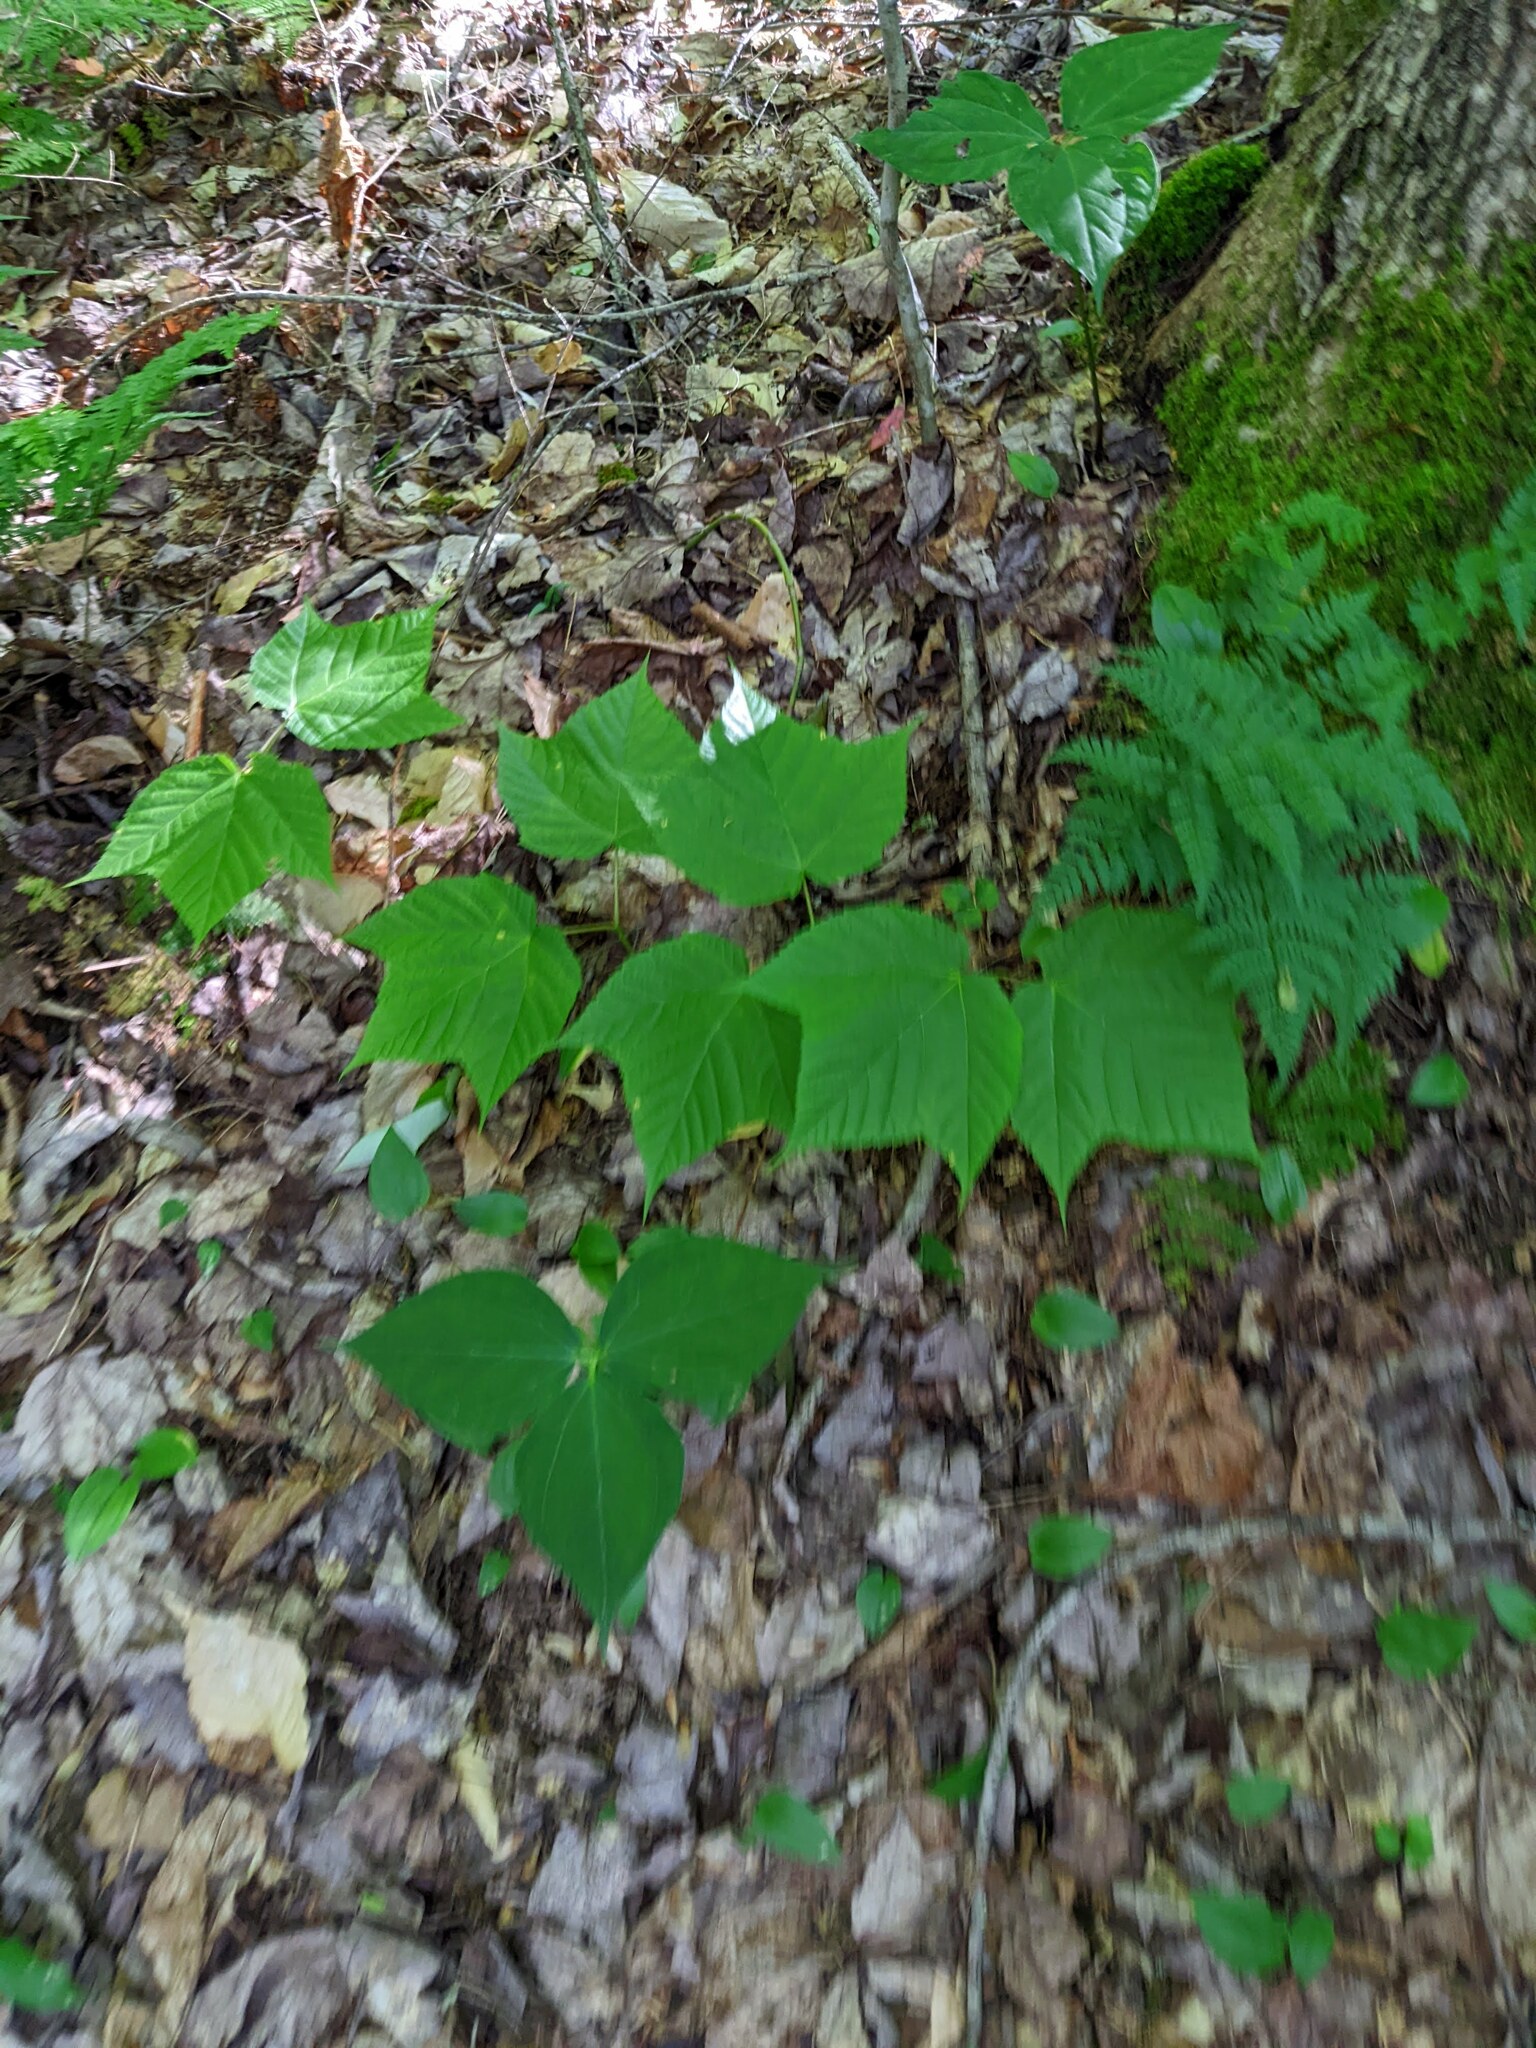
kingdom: Plantae
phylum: Tracheophyta
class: Magnoliopsida
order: Sapindales
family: Sapindaceae
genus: Acer
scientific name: Acer pensylvanicum
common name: Moosewood
